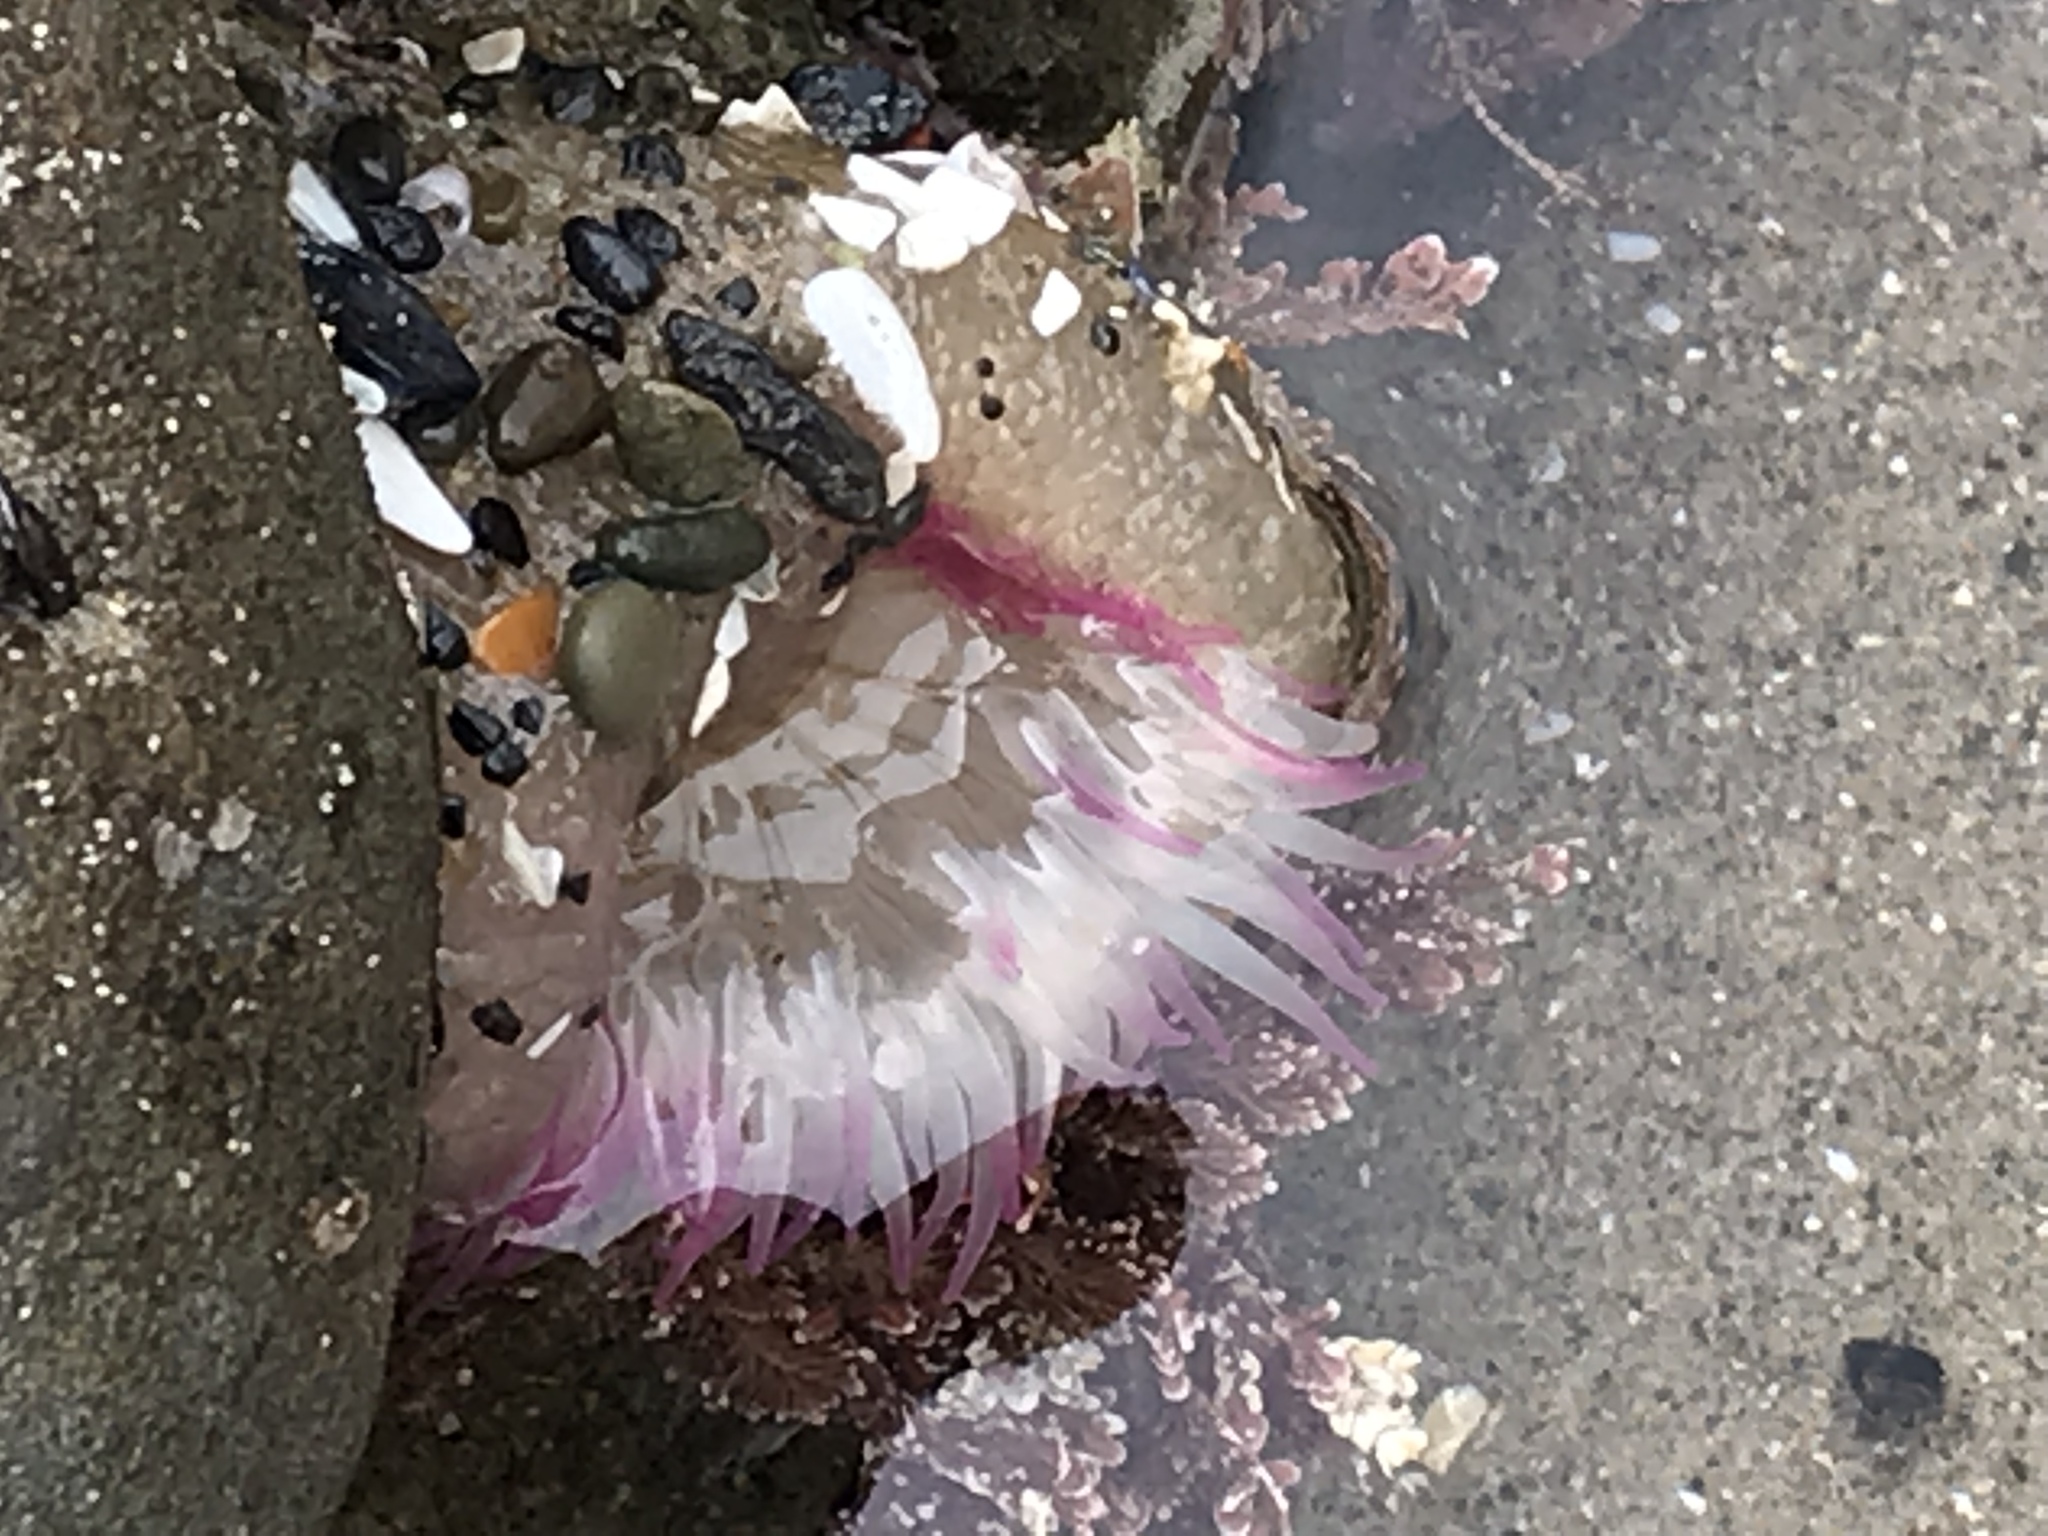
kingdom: Animalia
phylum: Cnidaria
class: Anthozoa
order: Actiniaria
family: Actiniidae
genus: Anthopleura
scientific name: Anthopleura elegantissima
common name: Clonal anemone
